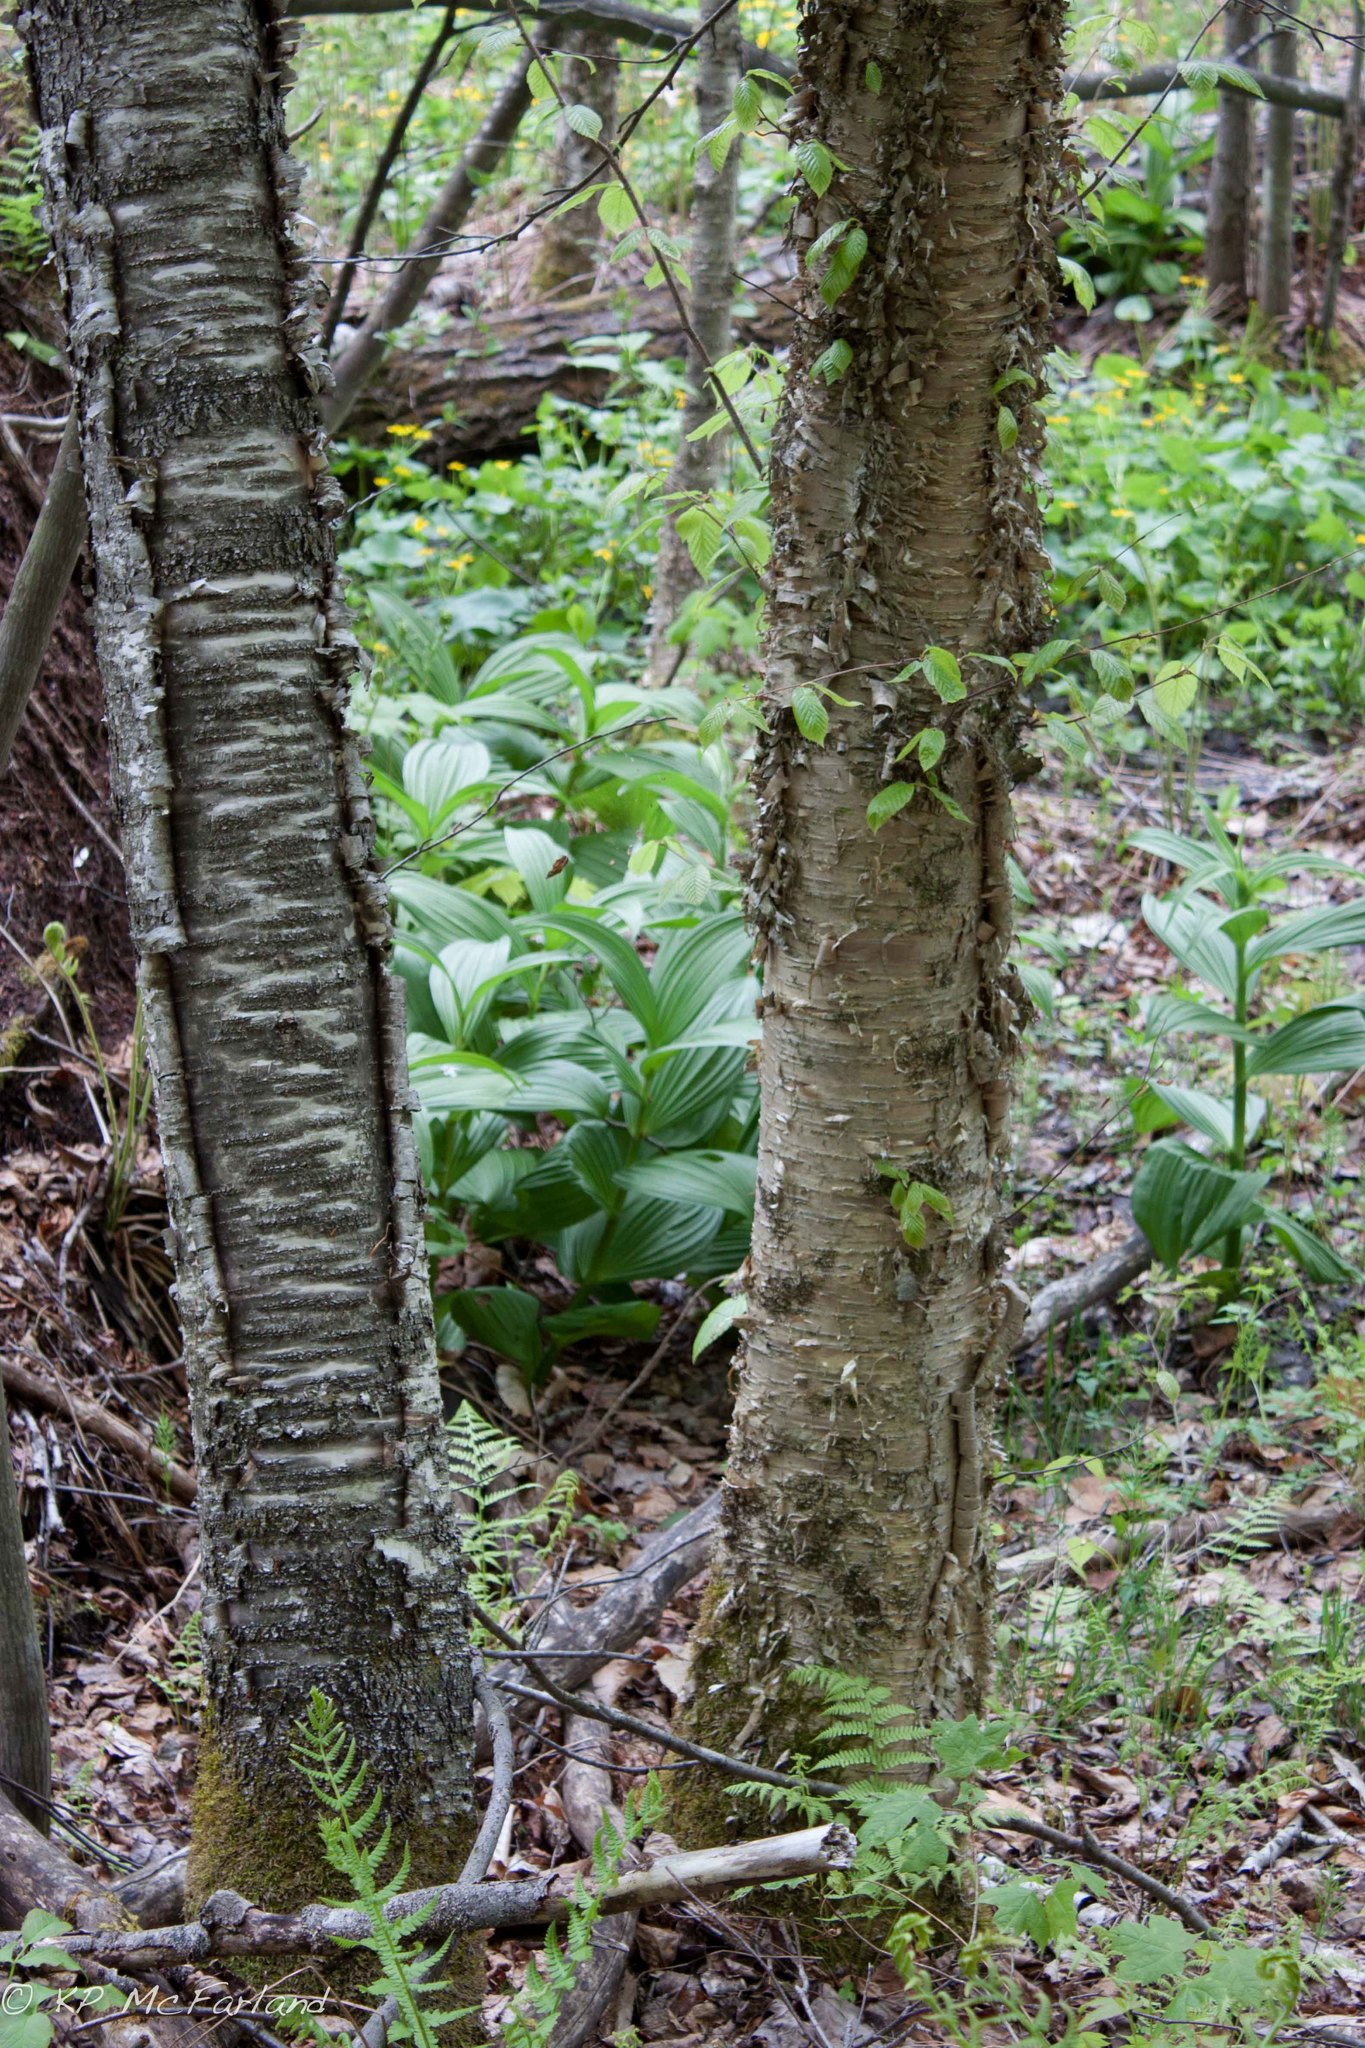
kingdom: Plantae
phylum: Tracheophyta
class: Magnoliopsida
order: Fagales
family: Betulaceae
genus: Betula
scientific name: Betula alleghaniensis
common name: Yellow birch
